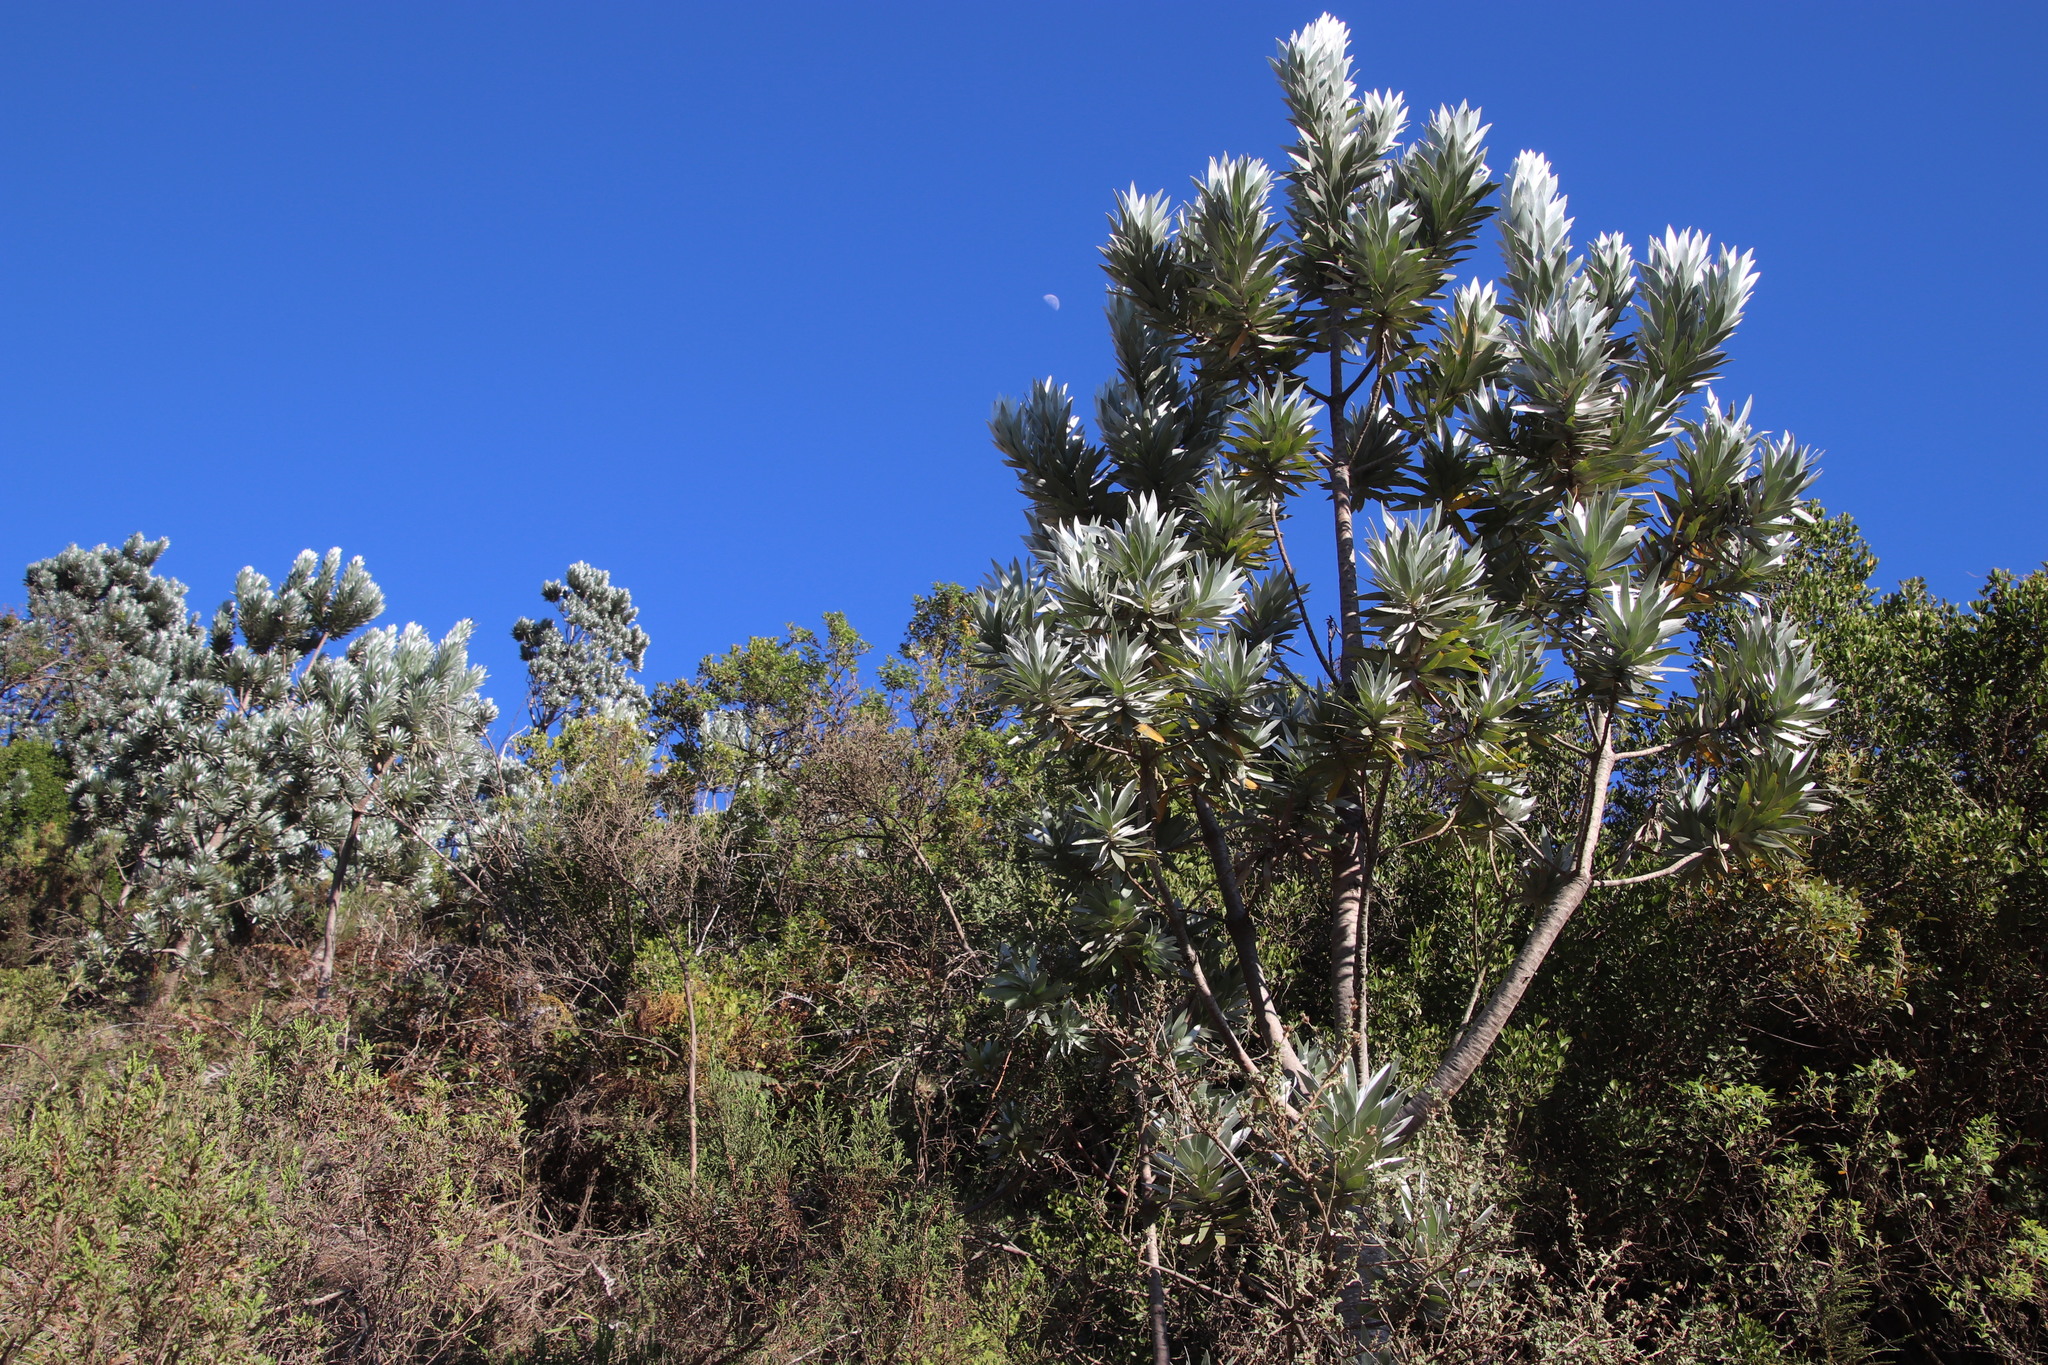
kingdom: Plantae
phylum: Tracheophyta
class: Magnoliopsida
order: Proteales
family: Proteaceae
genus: Leucadendron
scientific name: Leucadendron argenteum
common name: Cape silver tree
